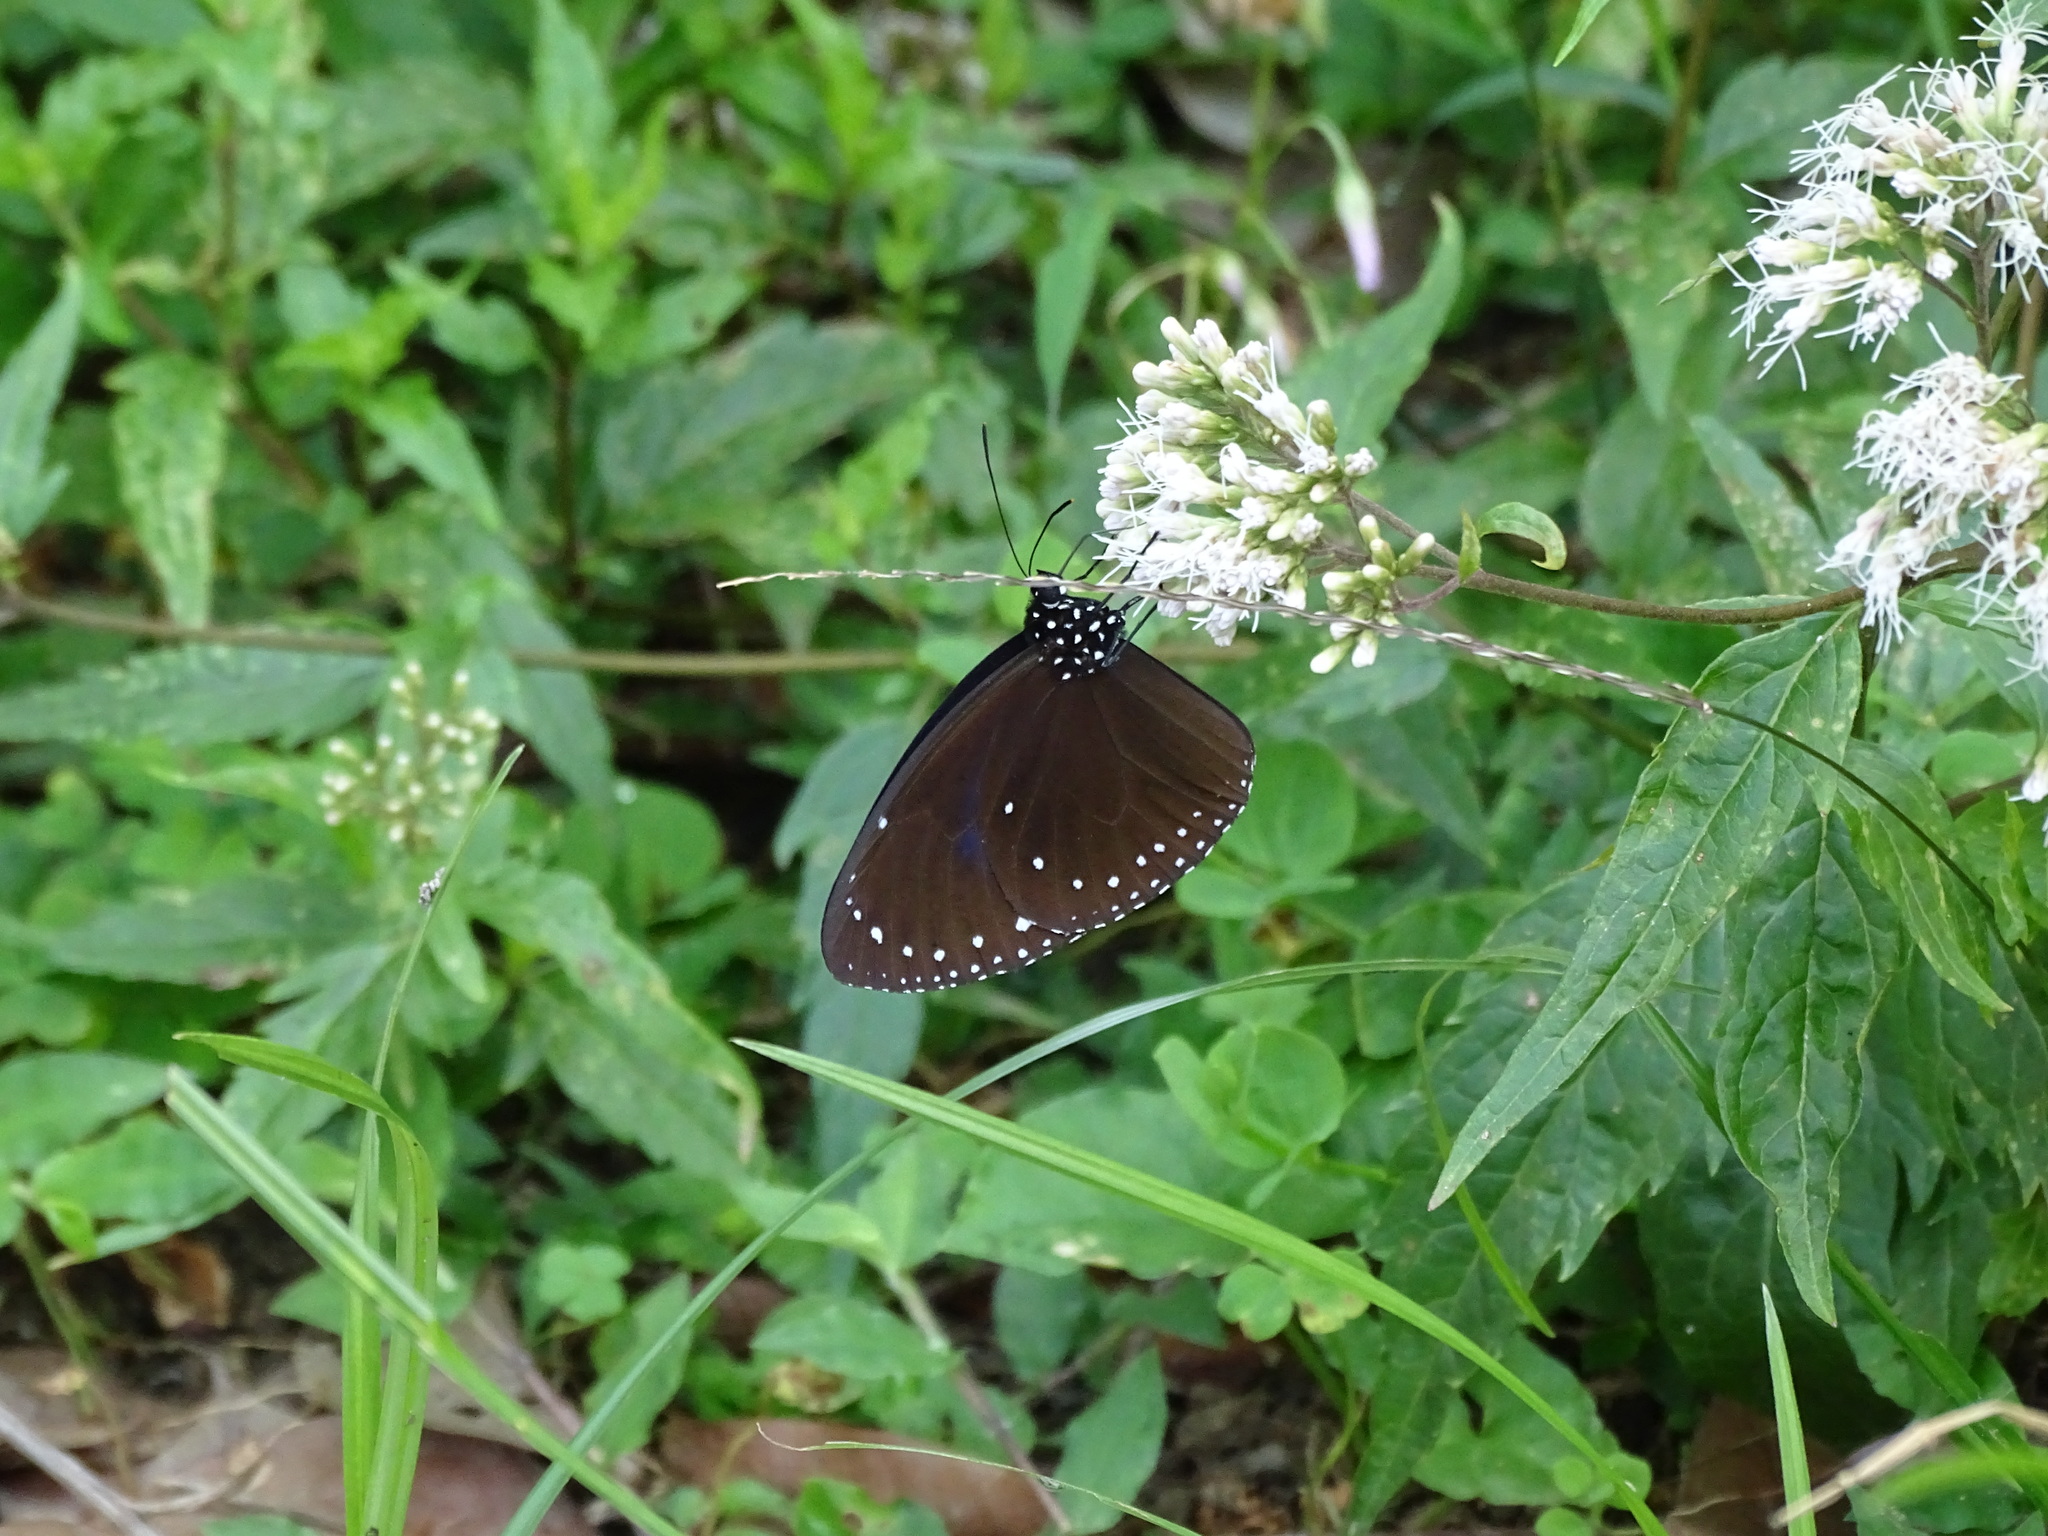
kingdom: Animalia
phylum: Arthropoda
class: Insecta
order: Lepidoptera
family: Nymphalidae
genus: Euploea
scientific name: Euploea tulliolus
